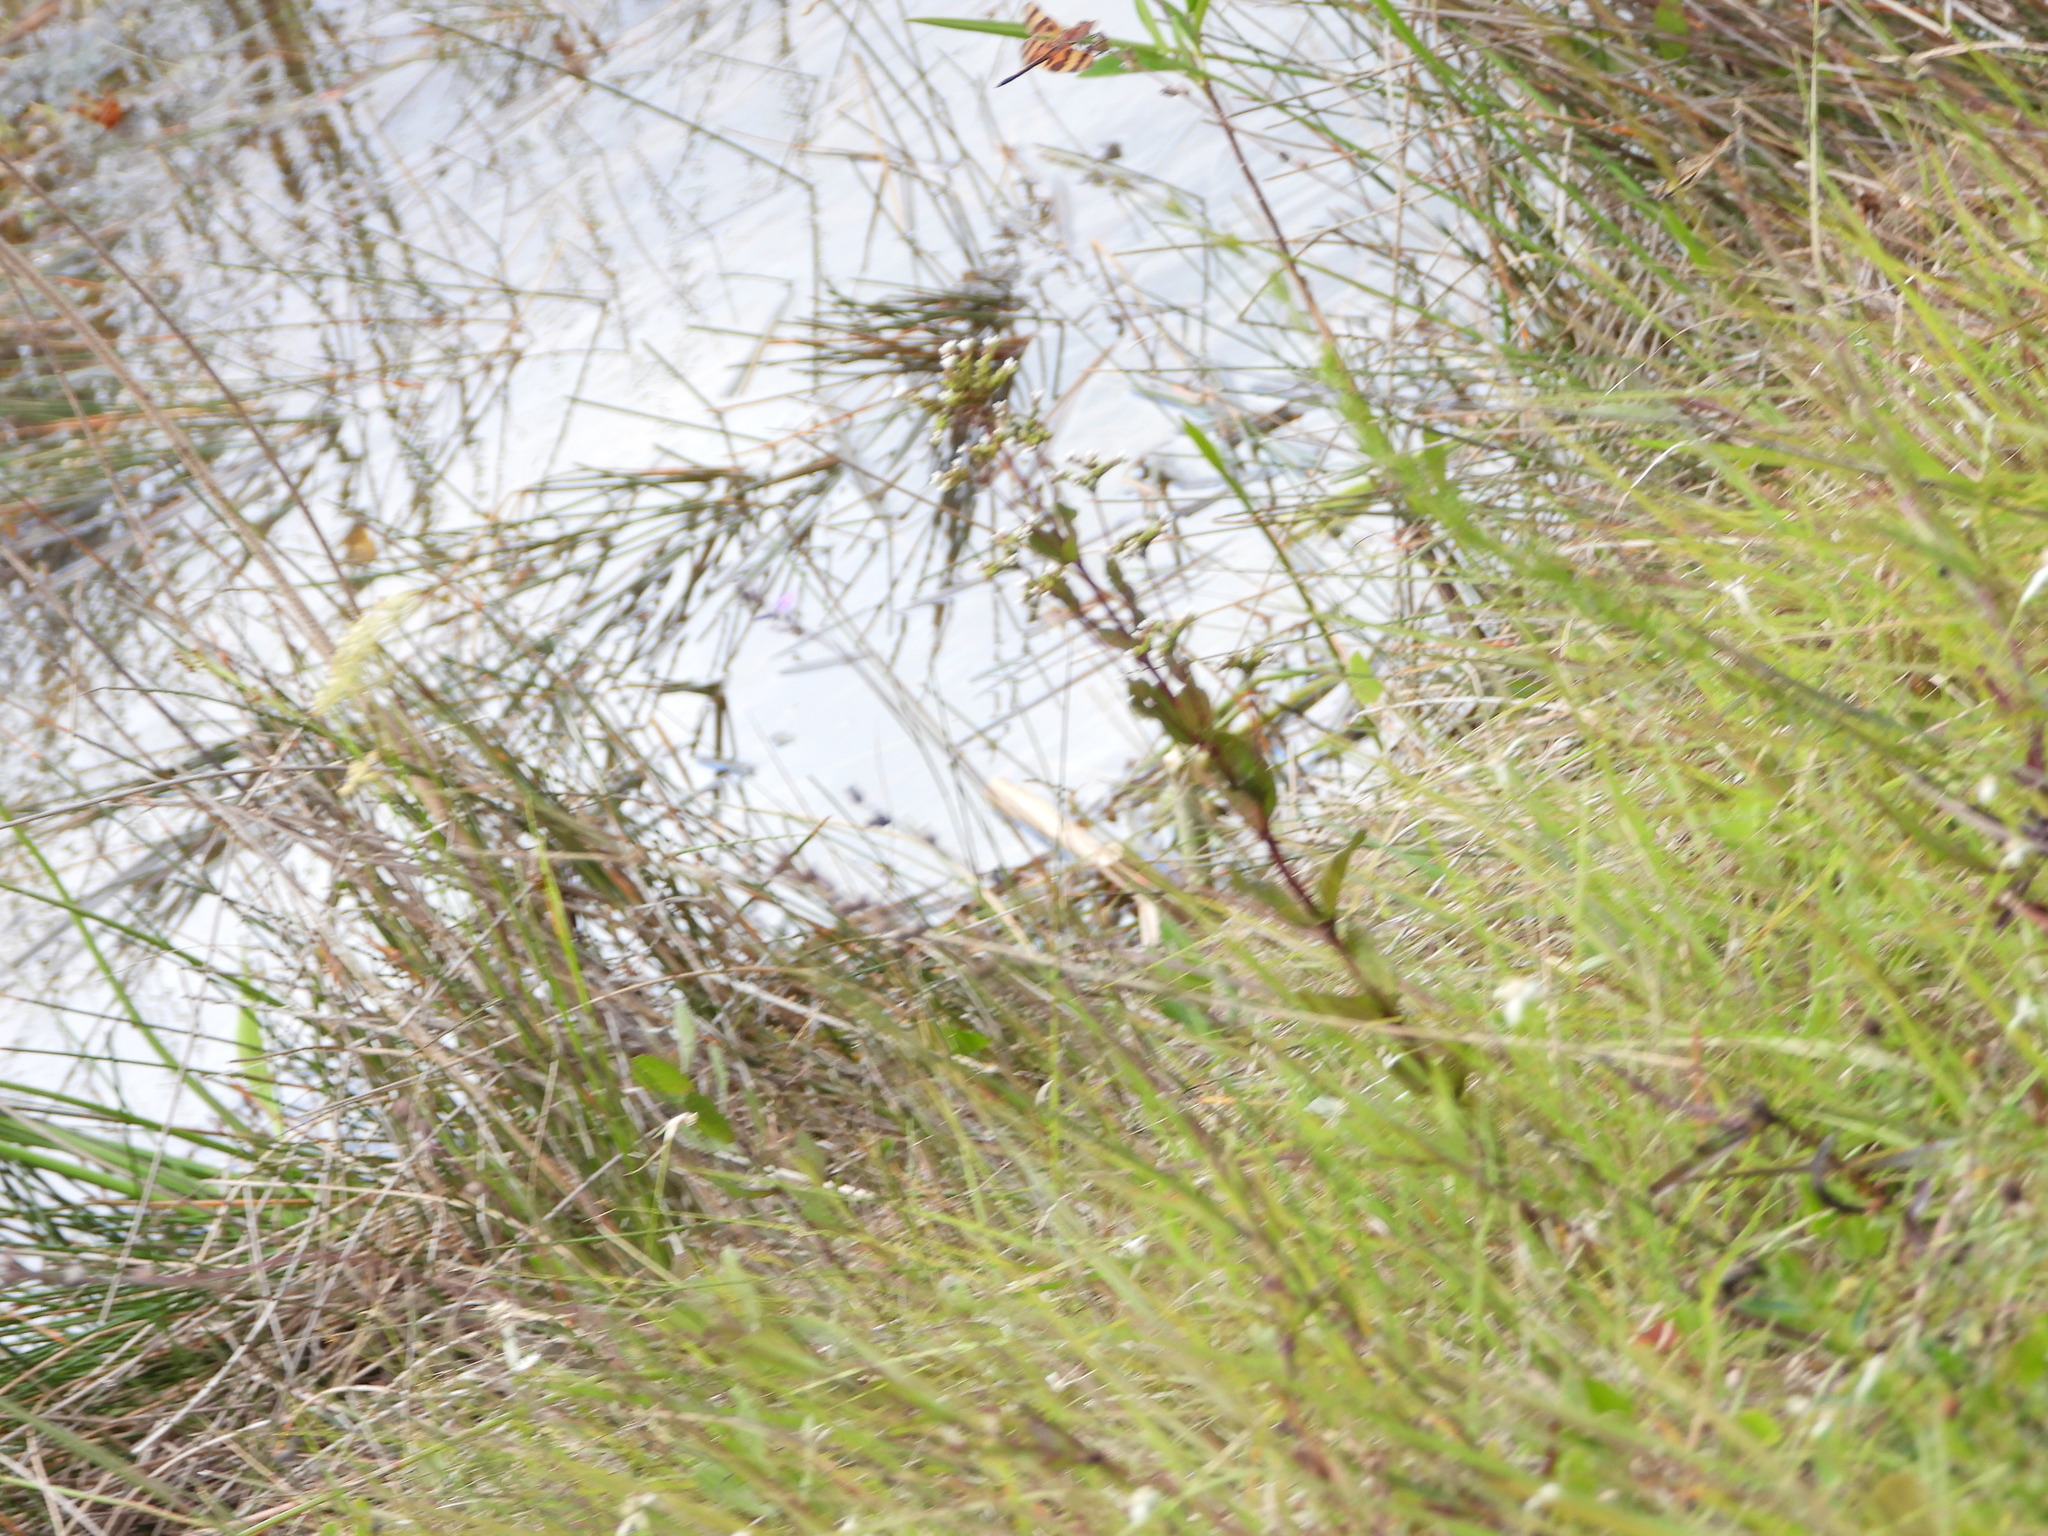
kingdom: Plantae
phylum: Tracheophyta
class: Magnoliopsida
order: Gentianales
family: Loganiaceae
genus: Mitreola
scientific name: Mitreola petiolata
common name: Lax hornpod
